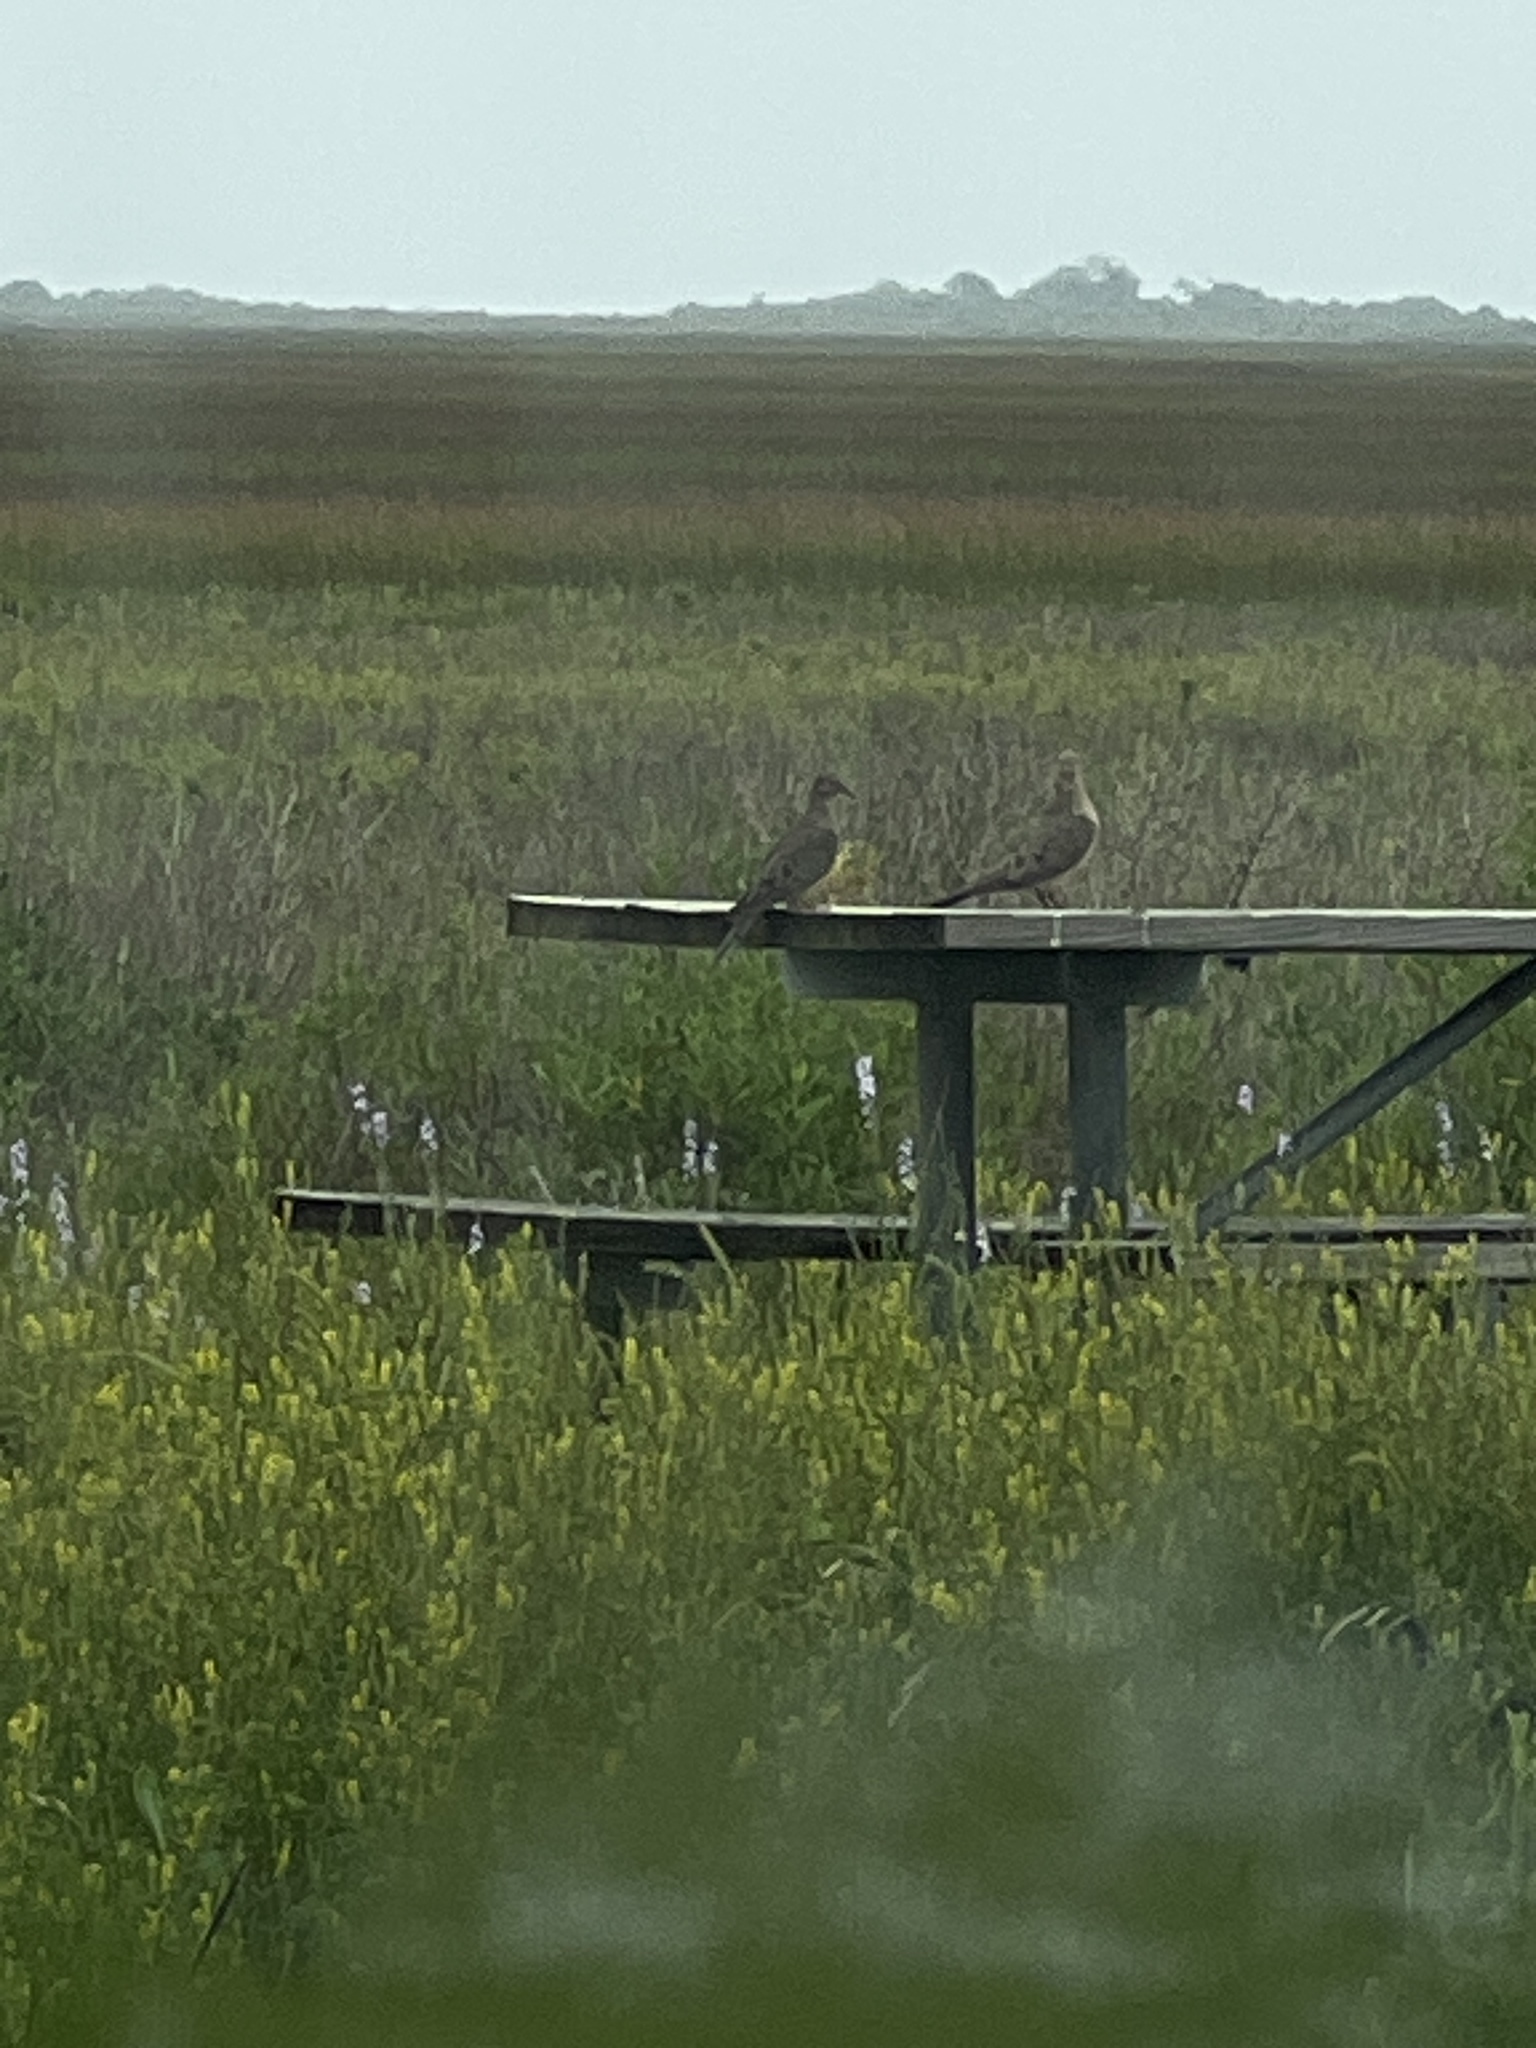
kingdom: Animalia
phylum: Chordata
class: Aves
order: Columbiformes
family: Columbidae
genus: Zenaida
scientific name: Zenaida macroura
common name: Mourning dove
